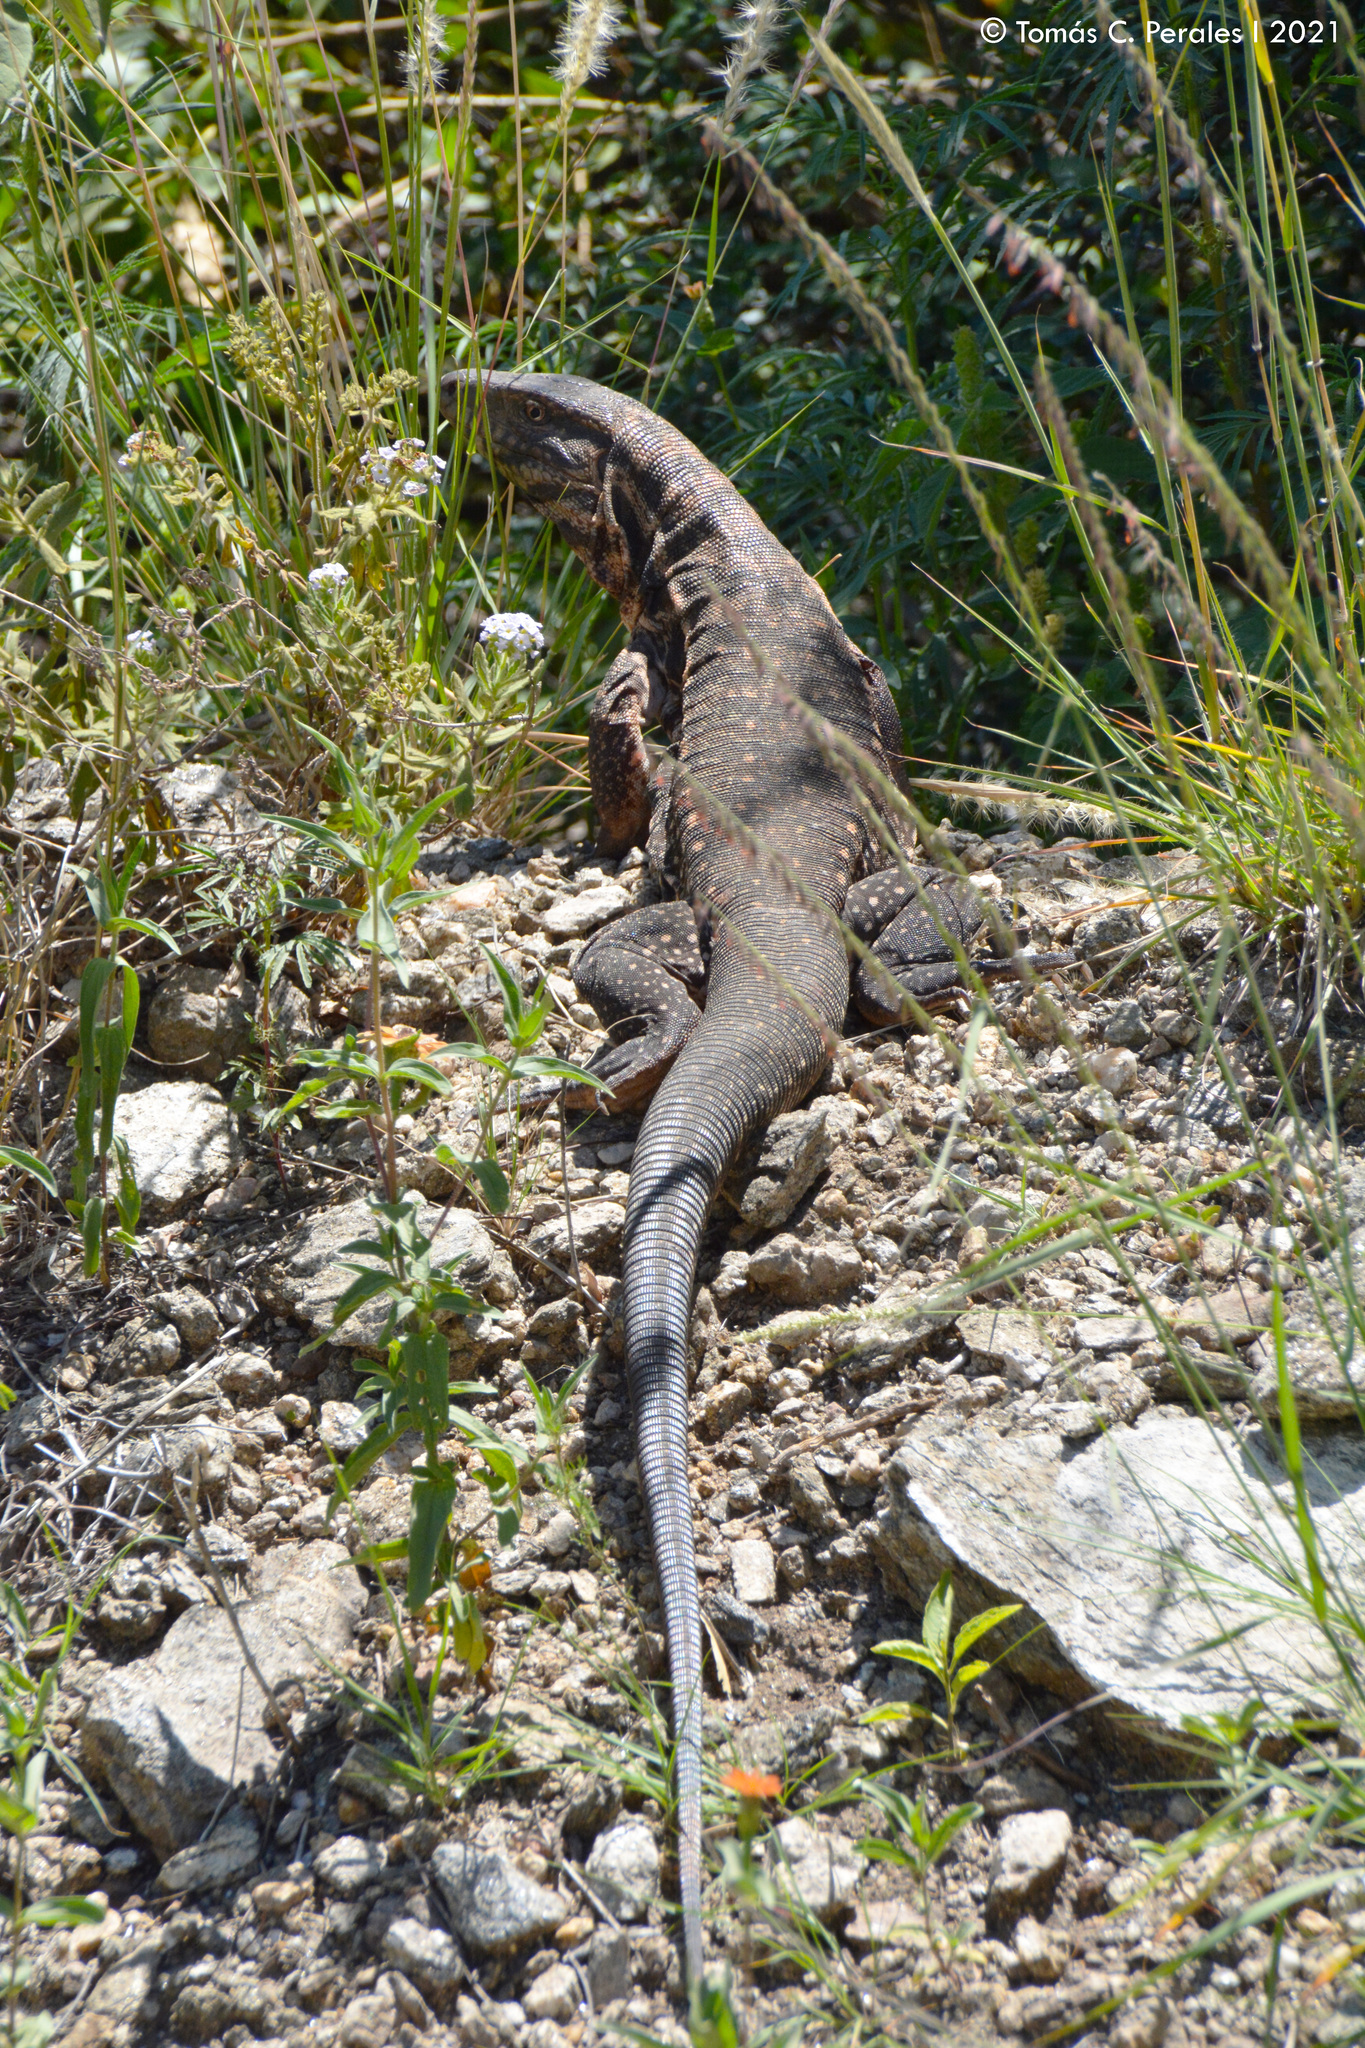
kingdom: Animalia
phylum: Chordata
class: Squamata
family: Teiidae
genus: Salvator
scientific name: Salvator rufescens
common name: Red tegu
